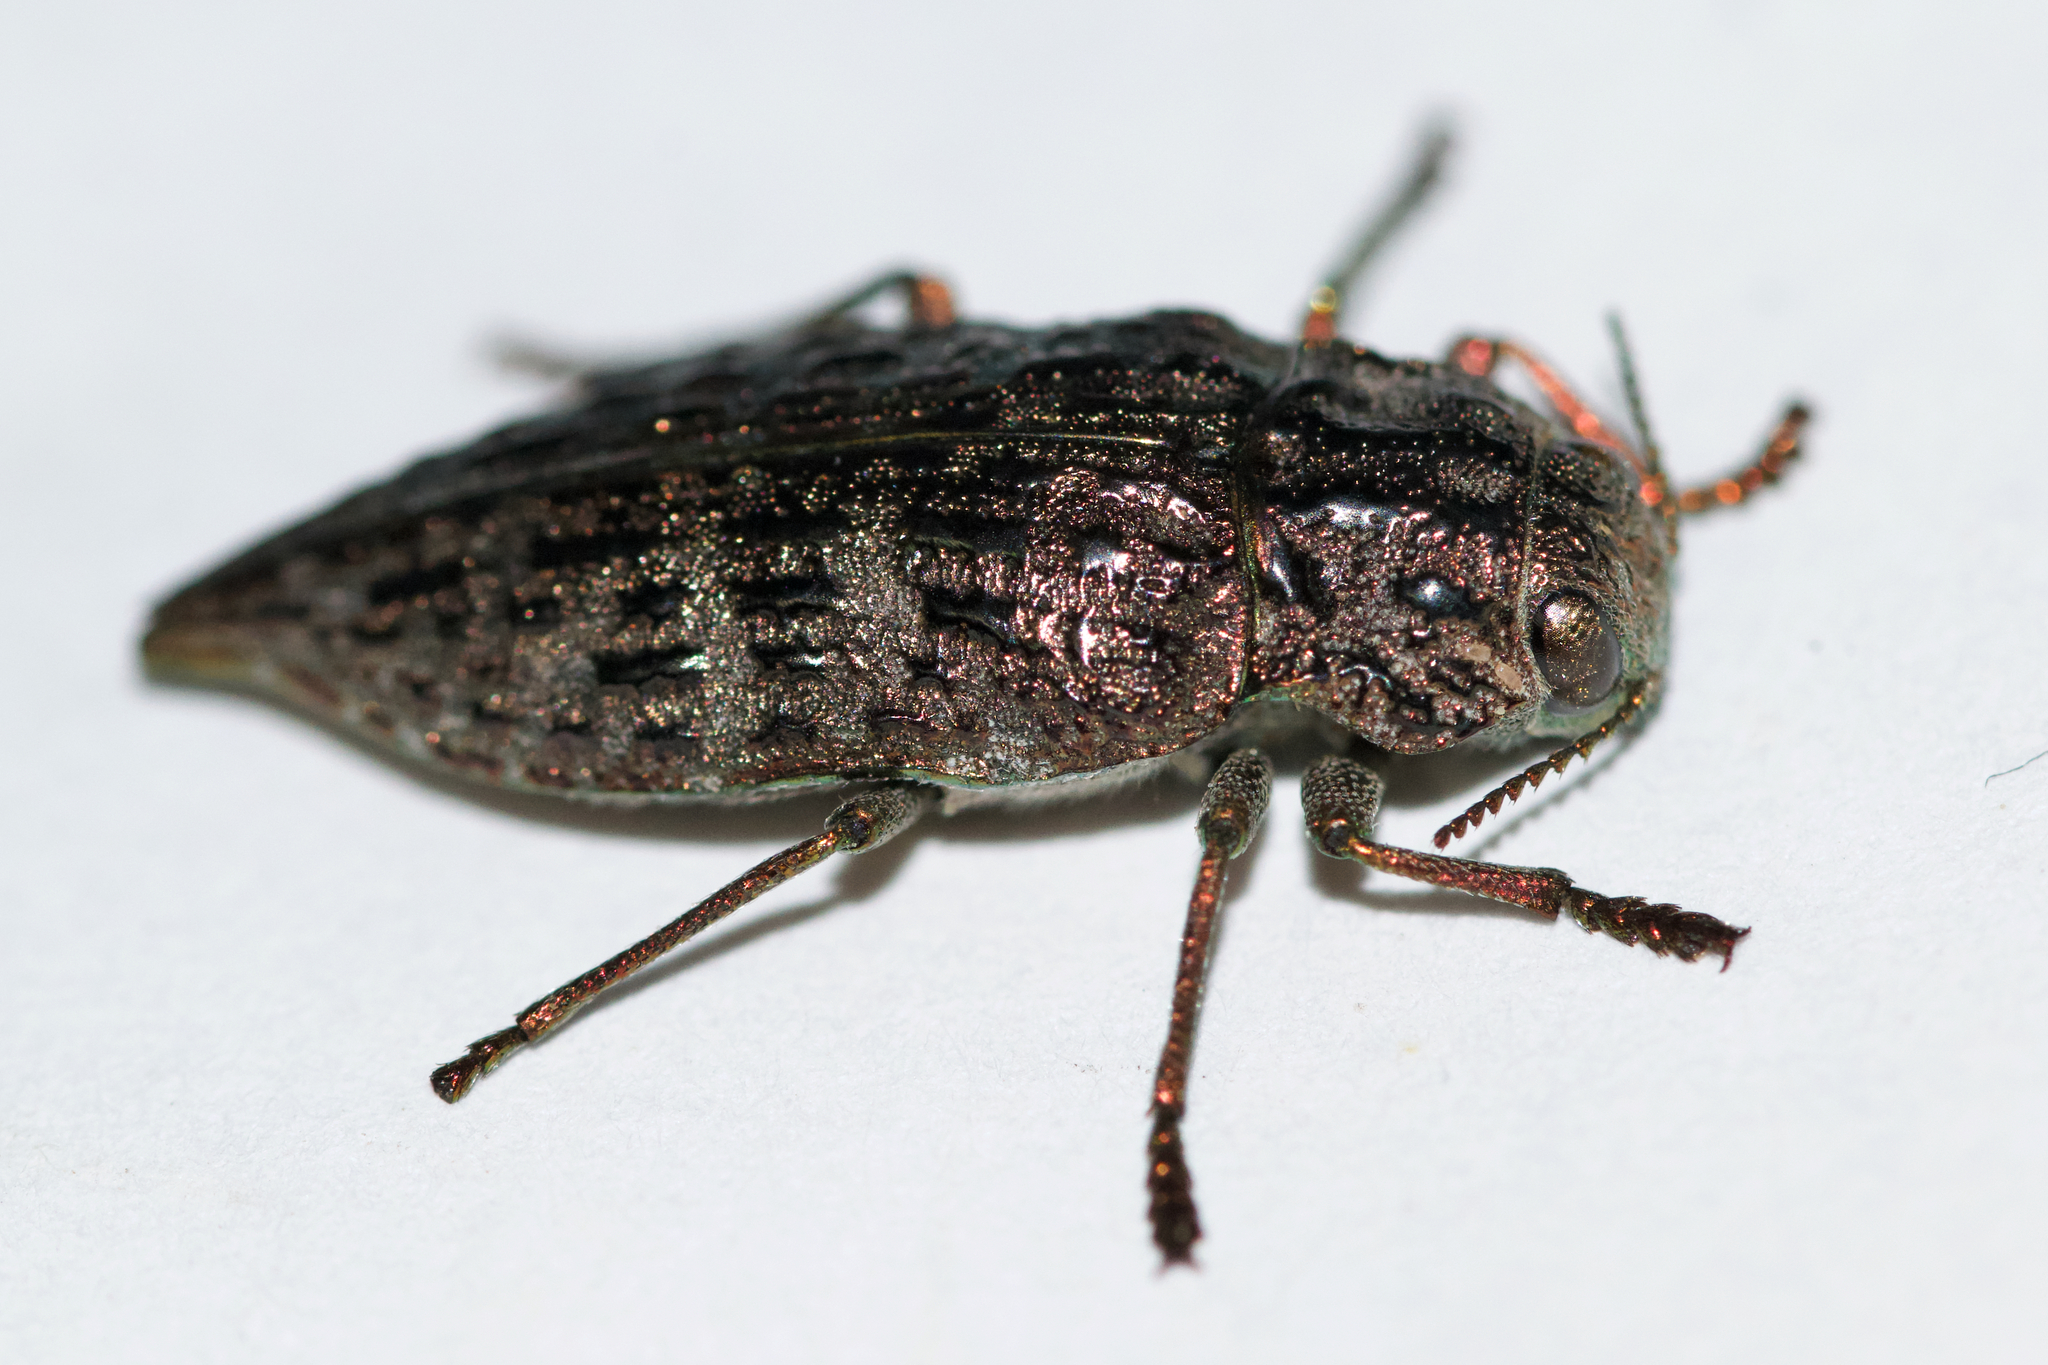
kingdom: Animalia
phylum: Arthropoda
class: Insecta
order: Coleoptera
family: Buprestidae
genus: Dicerca
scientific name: Dicerca tenebrosa
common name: Dark jewel beetle
